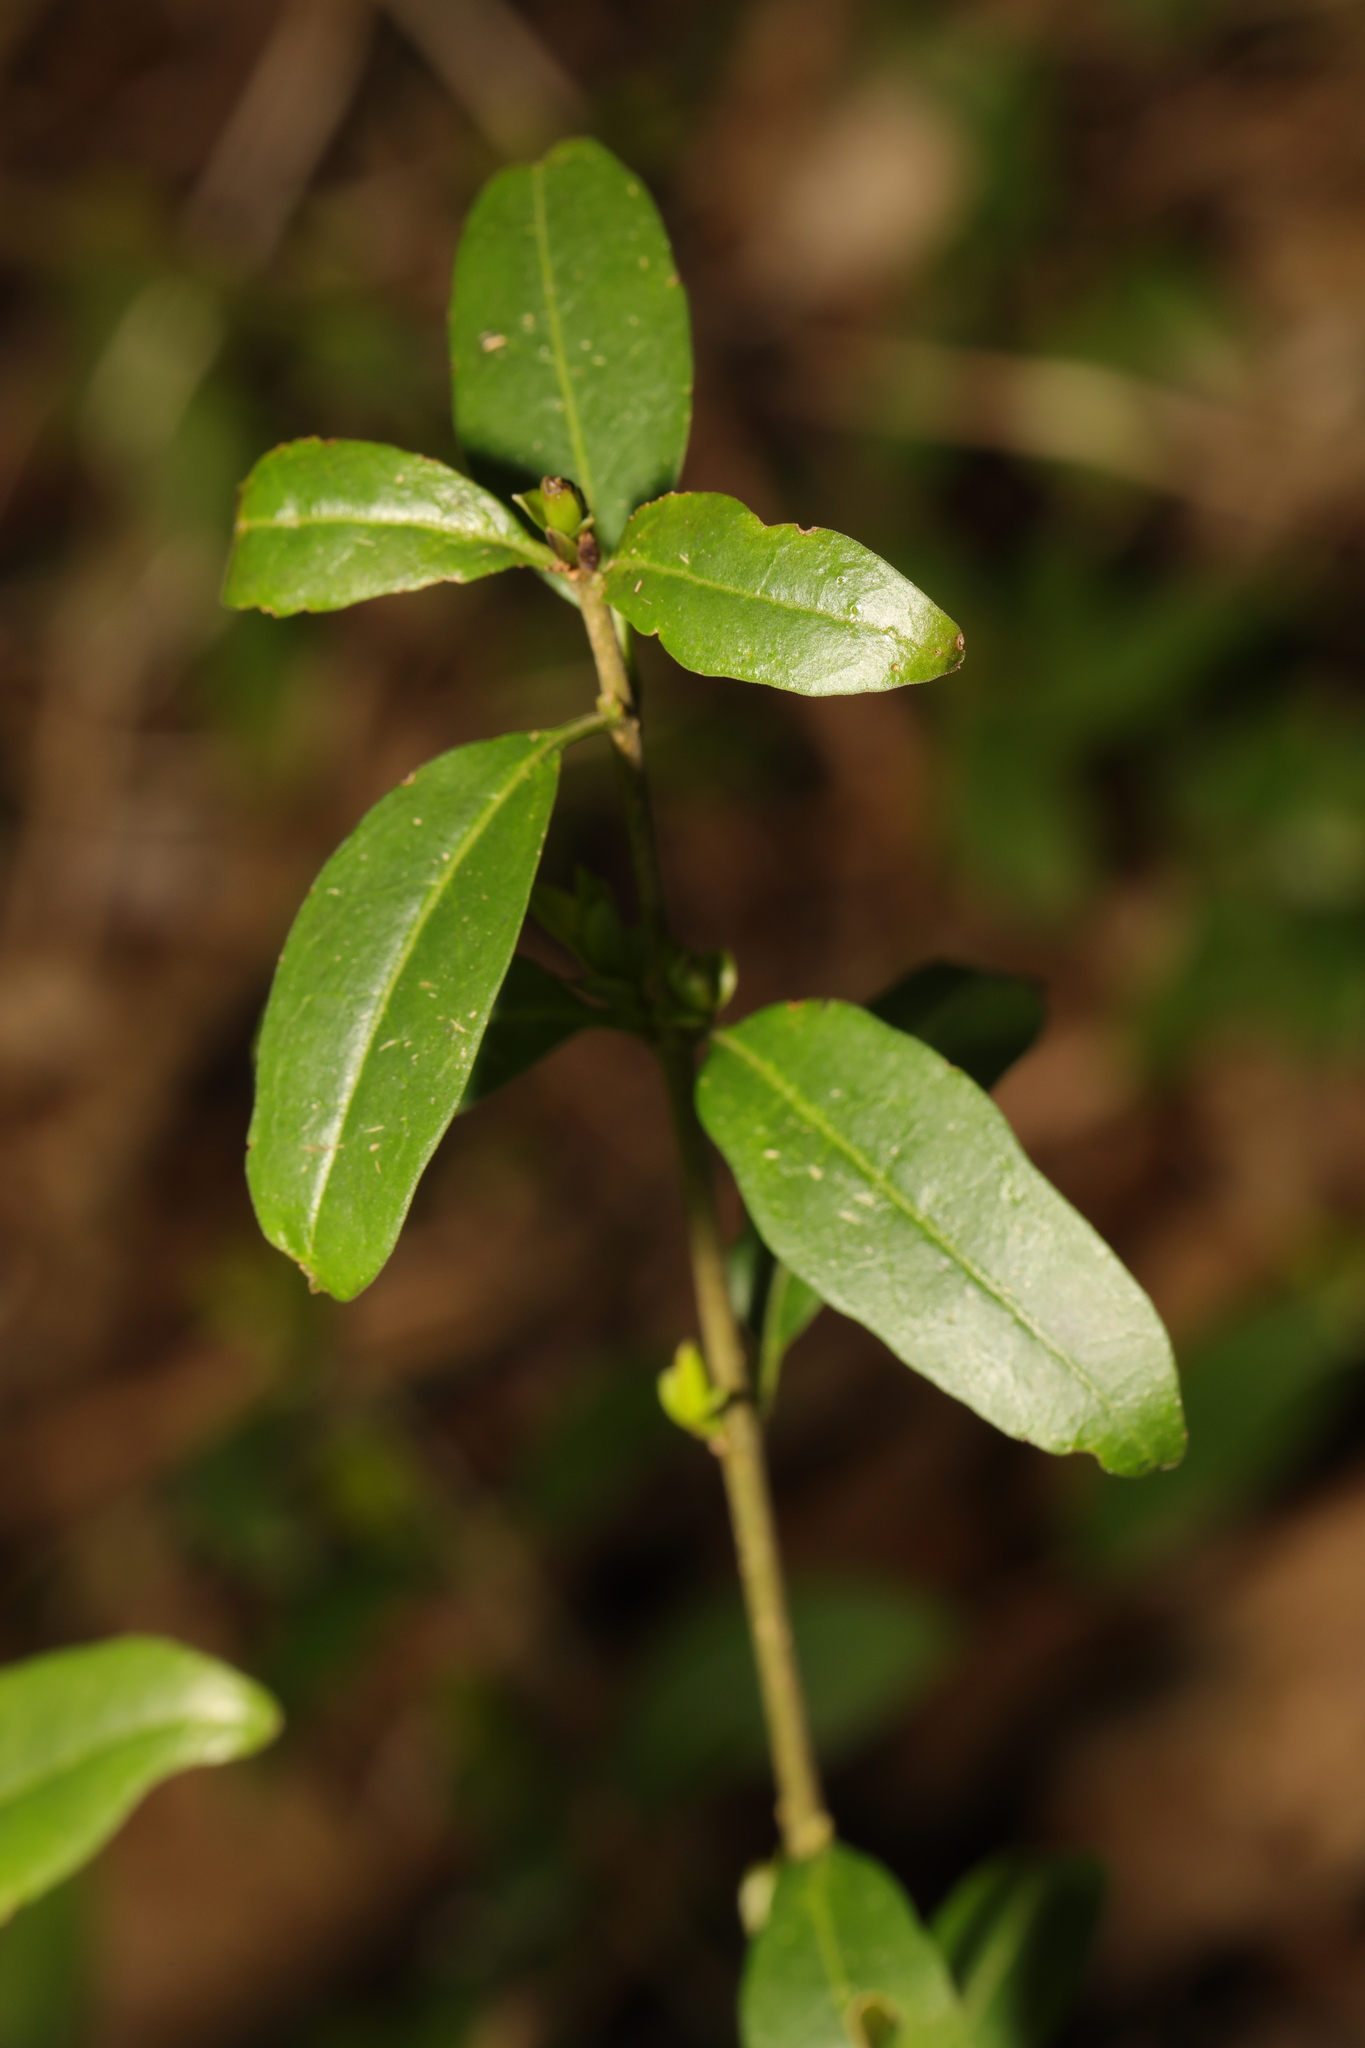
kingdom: Plantae
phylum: Tracheophyta
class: Magnoliopsida
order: Lamiales
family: Oleaceae
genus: Ligustrum
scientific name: Ligustrum vulgare
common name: Wild privet
